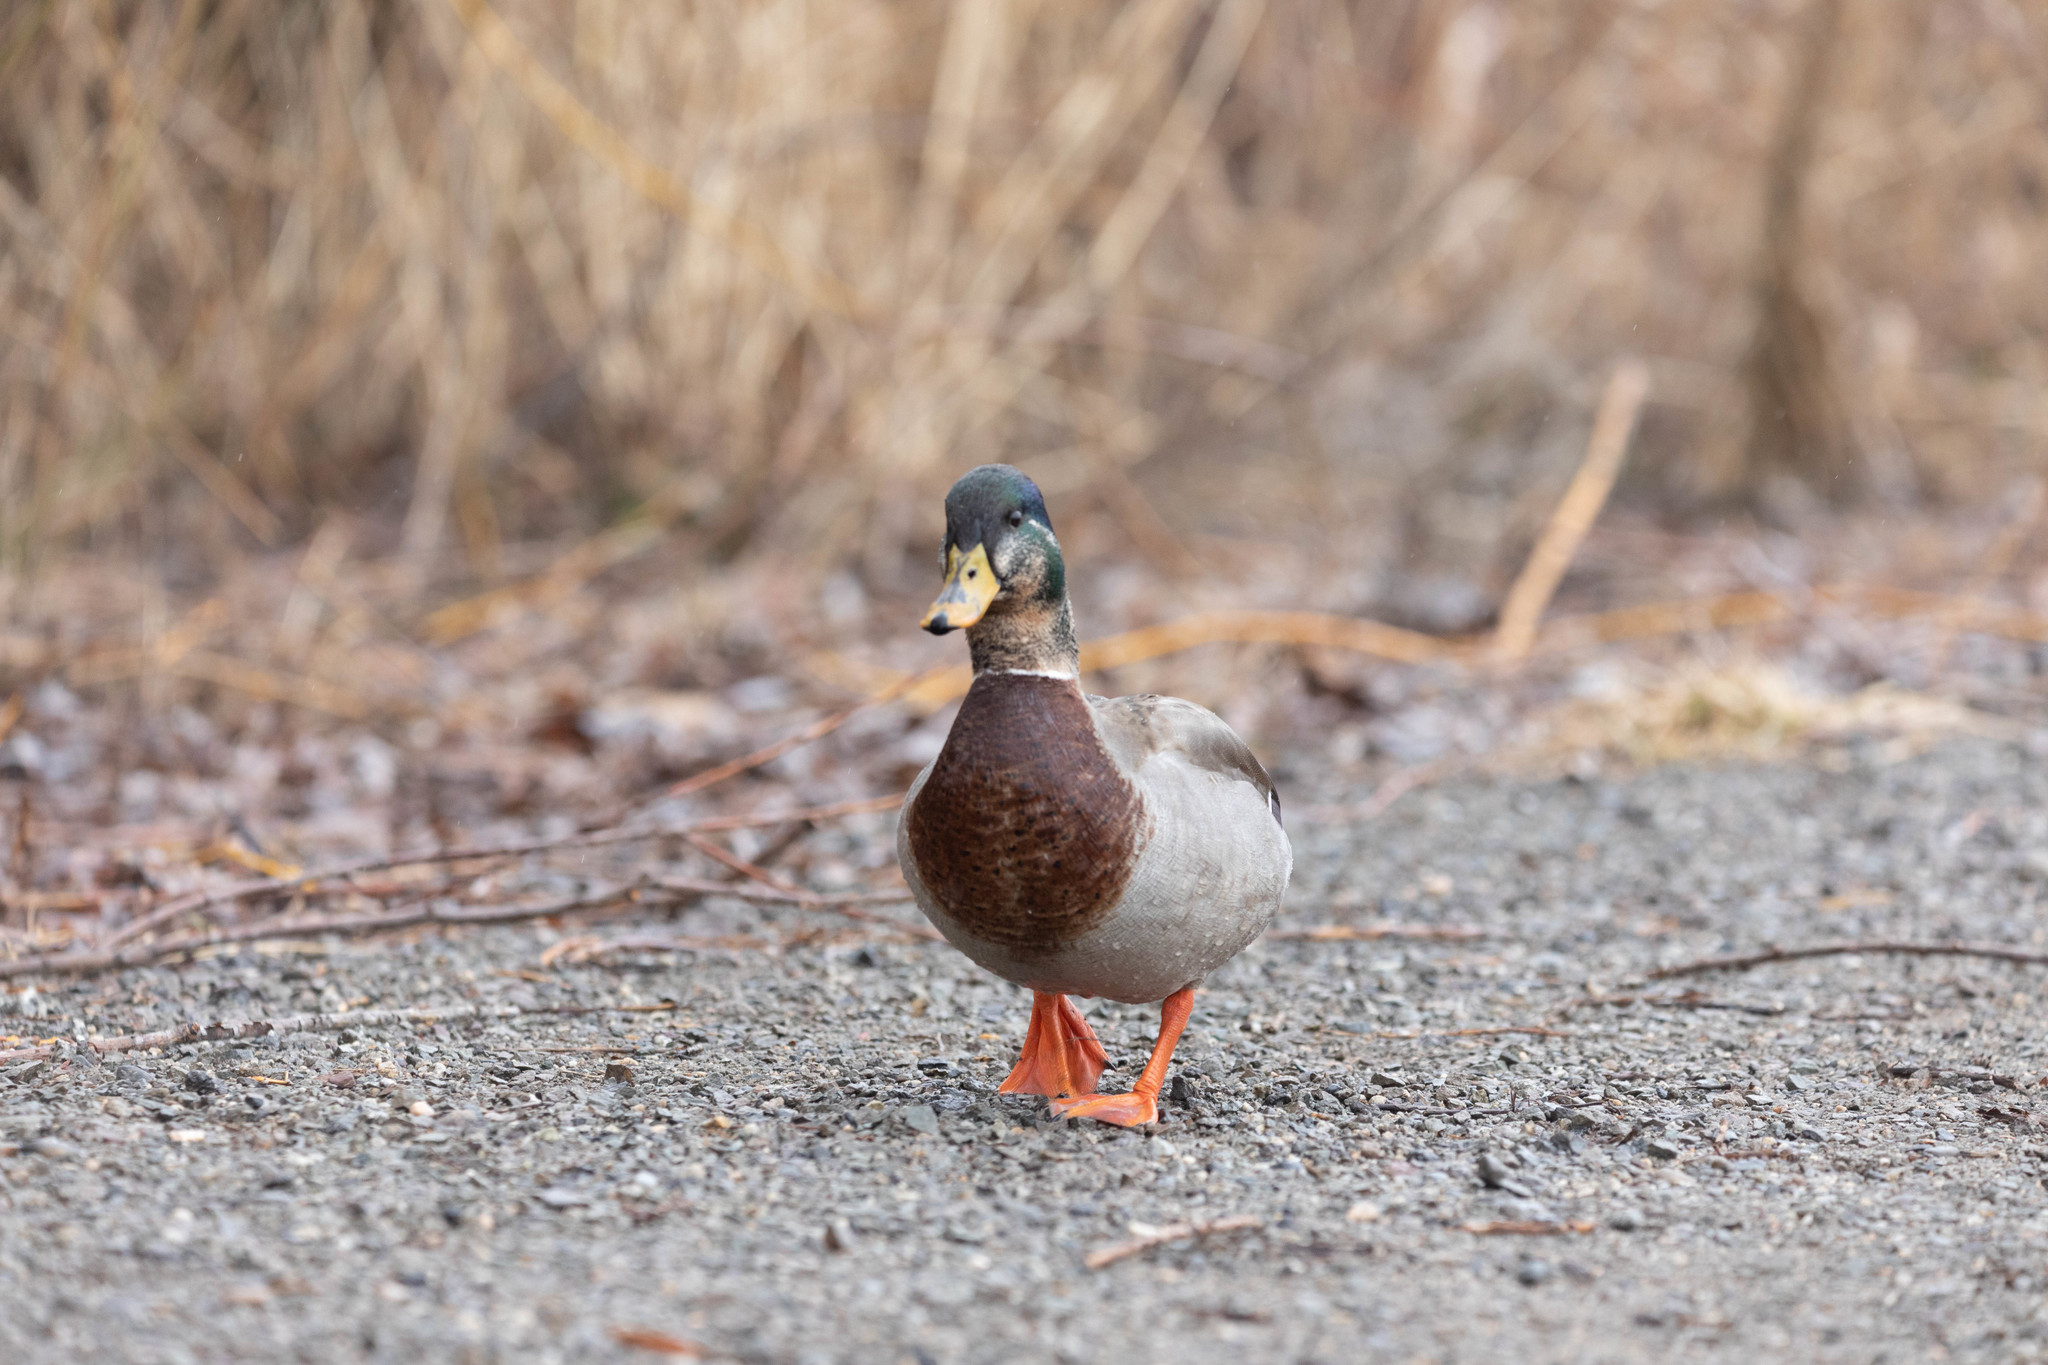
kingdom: Animalia
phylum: Chordata
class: Aves
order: Anseriformes
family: Anatidae
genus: Anas
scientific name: Anas platyrhynchos
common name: Mallard
